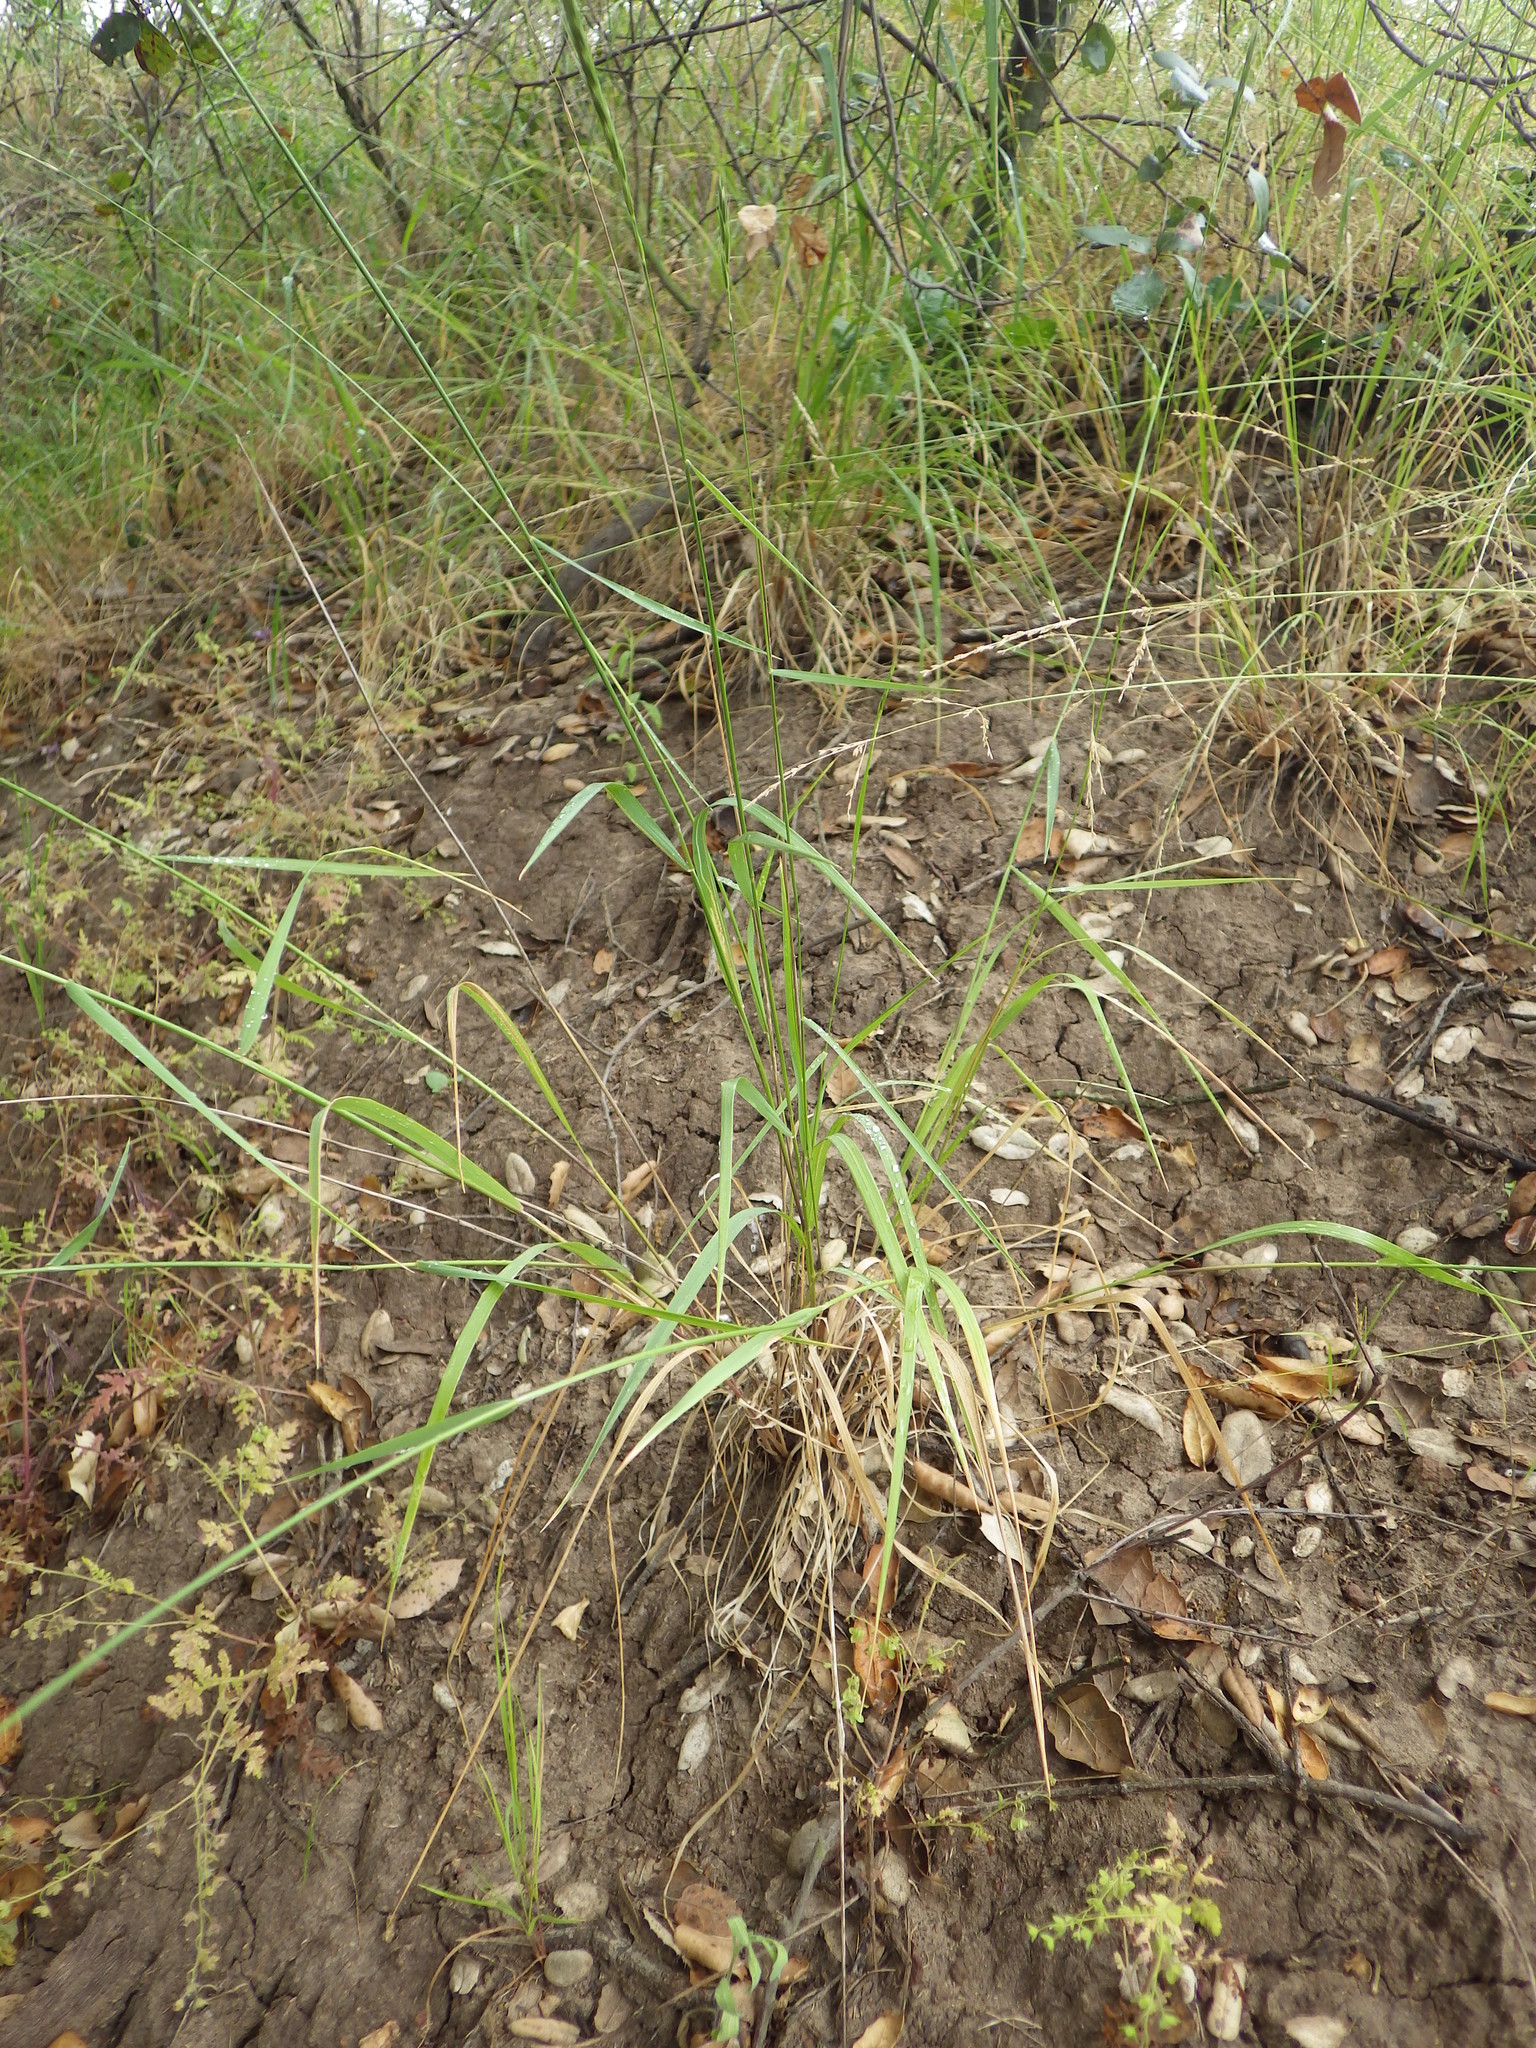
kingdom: Plantae
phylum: Tracheophyta
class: Liliopsida
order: Poales
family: Poaceae
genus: Melica
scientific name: Melica californica
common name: California melic
